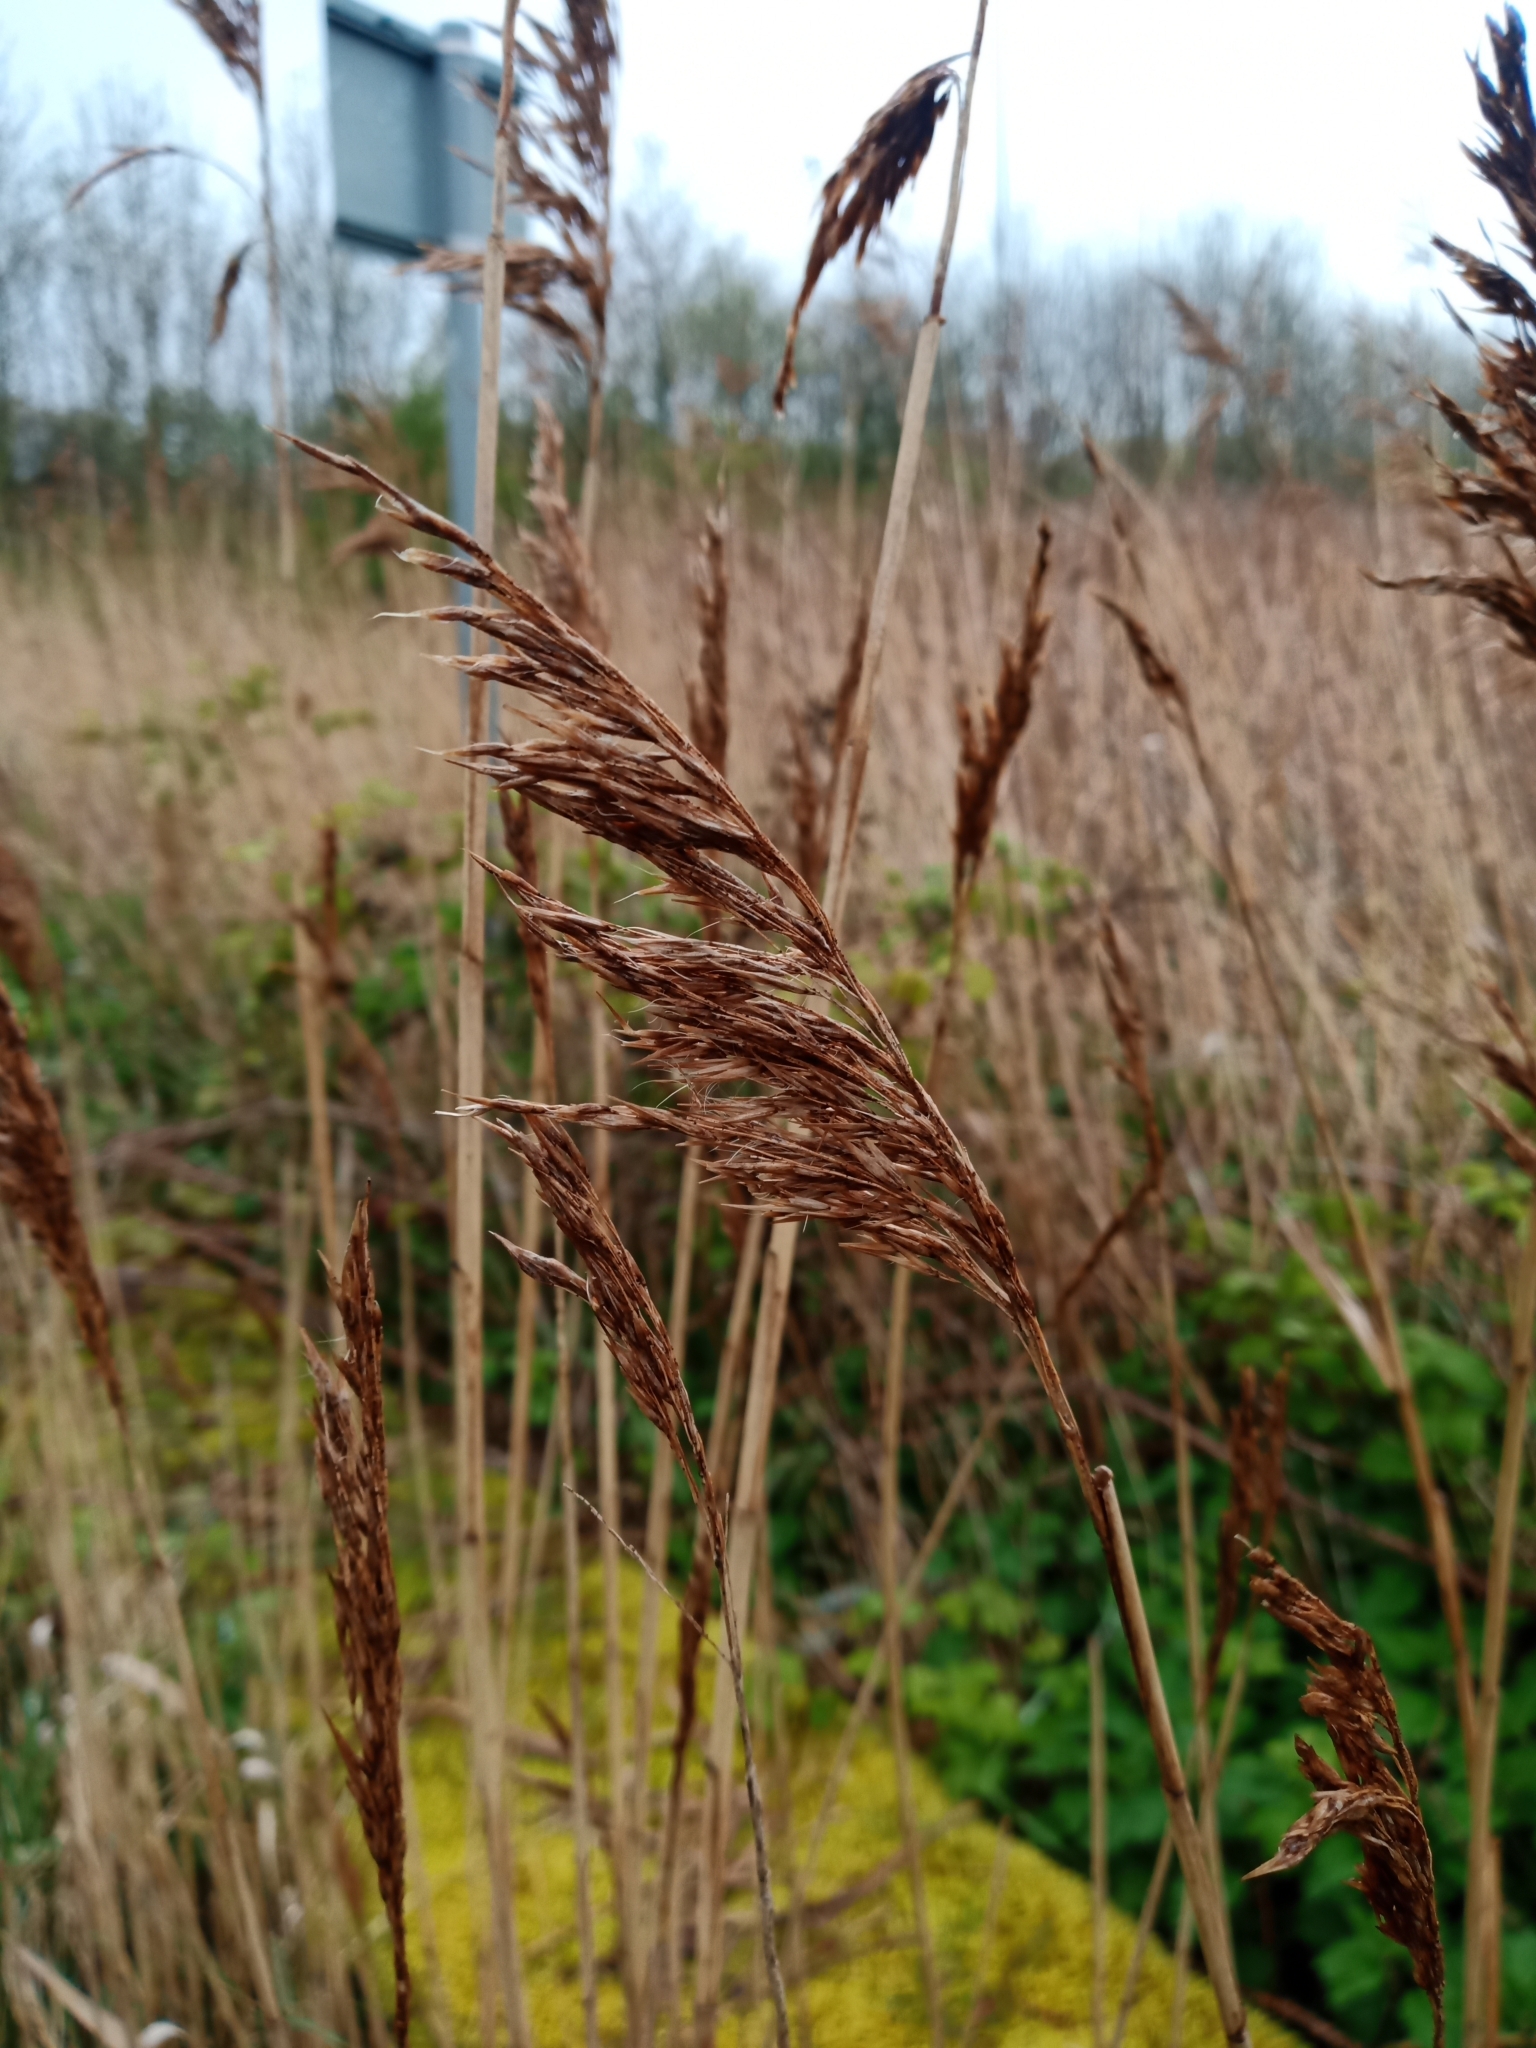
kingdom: Plantae
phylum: Tracheophyta
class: Liliopsida
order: Poales
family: Poaceae
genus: Phragmites
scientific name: Phragmites australis
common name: Common reed
